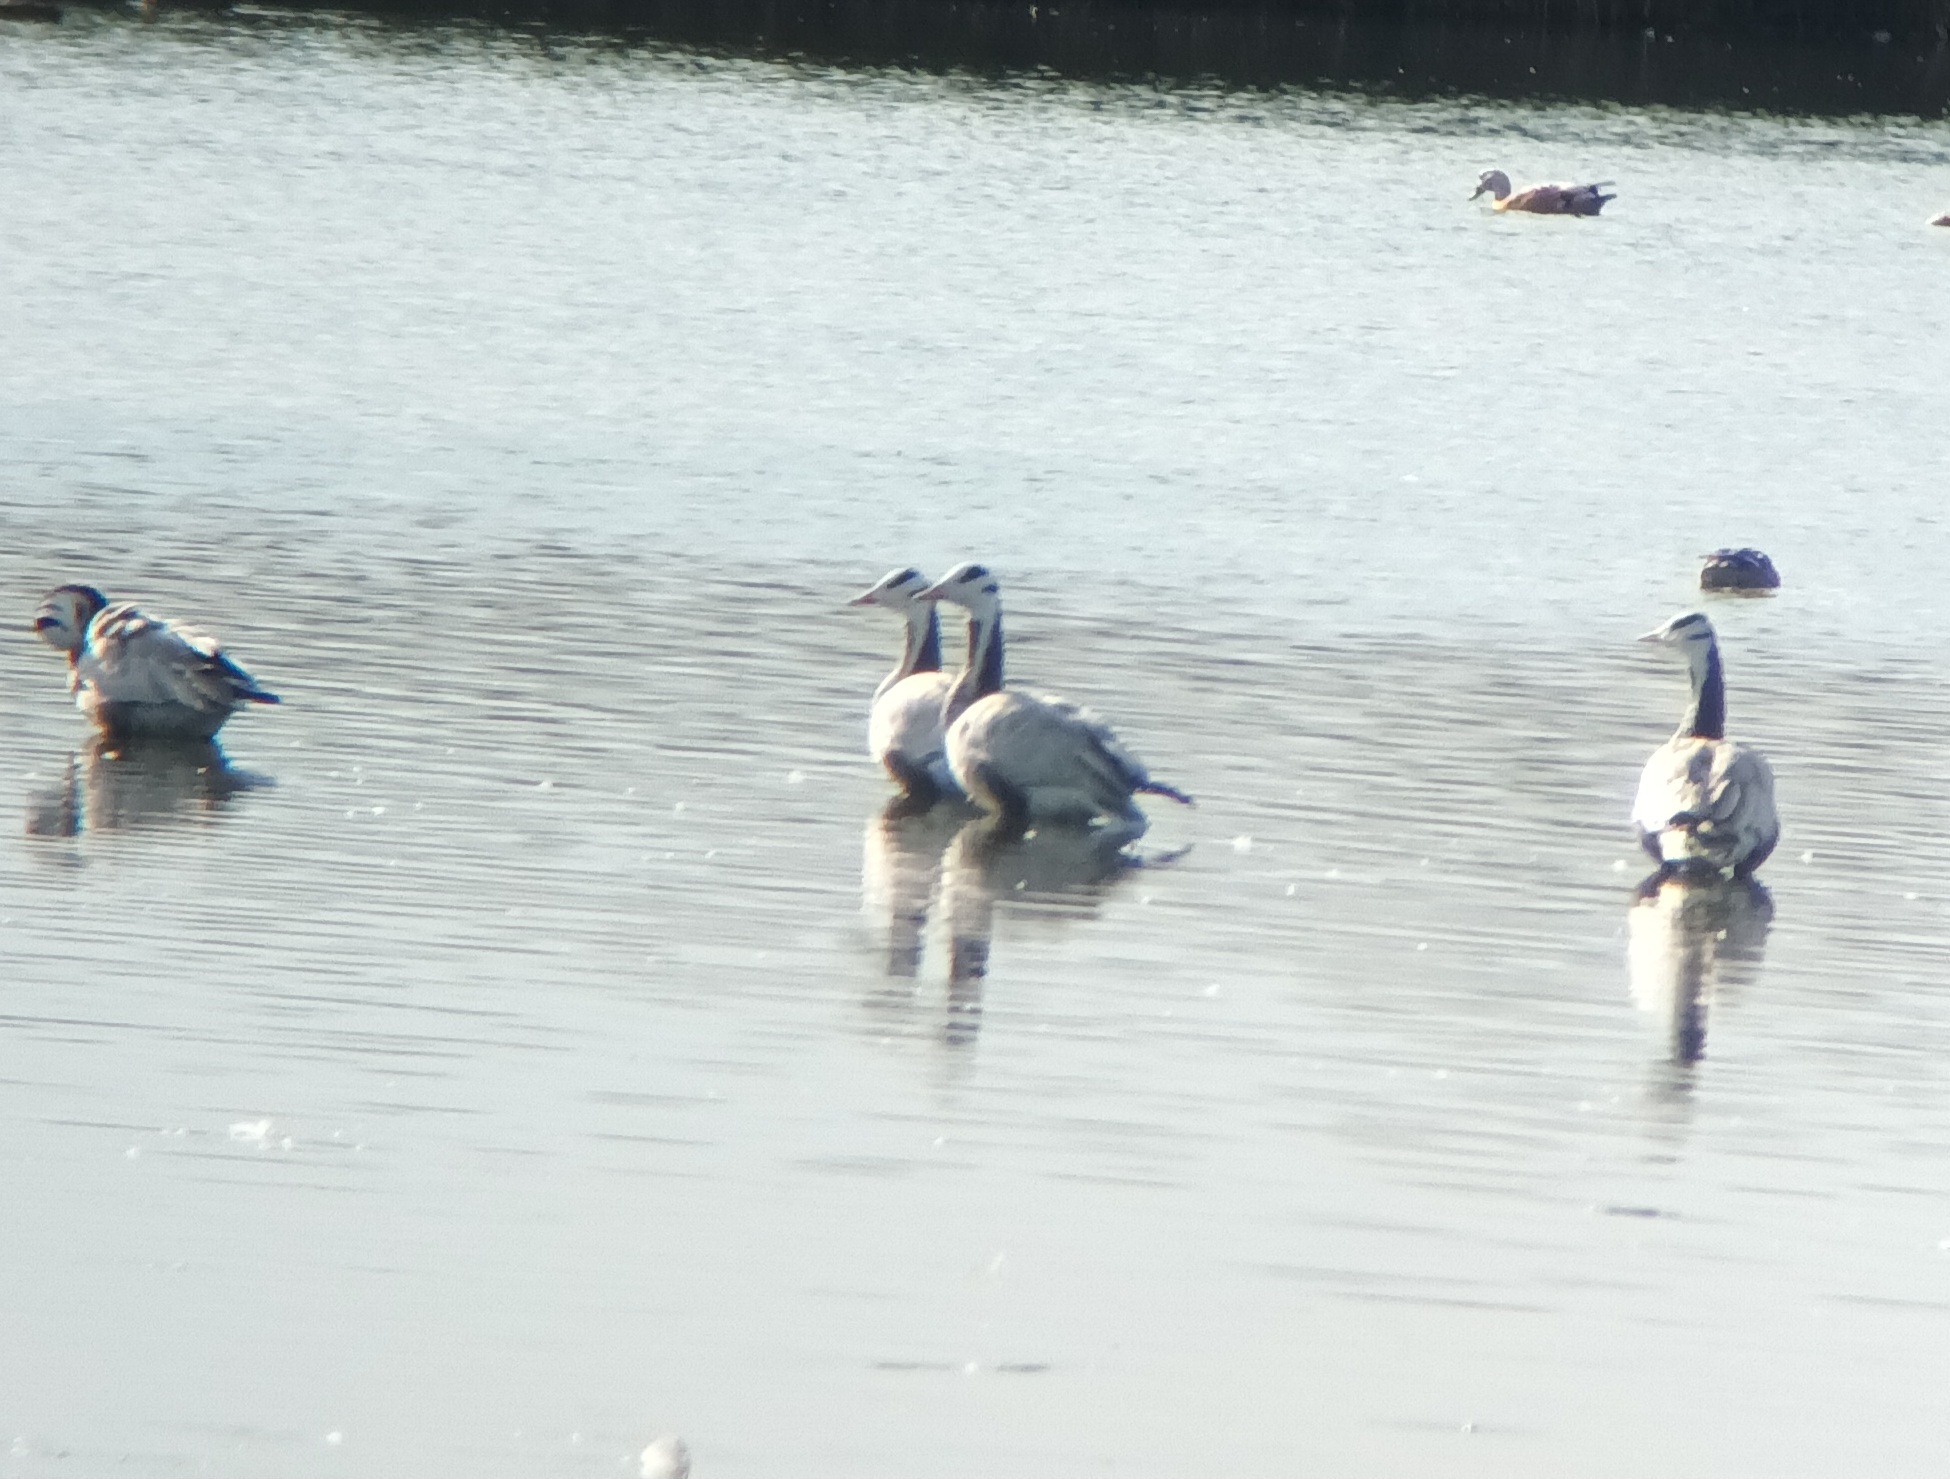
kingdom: Animalia
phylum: Chordata
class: Aves
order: Anseriformes
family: Anatidae
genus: Anser
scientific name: Anser indicus
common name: Bar-headed goose
